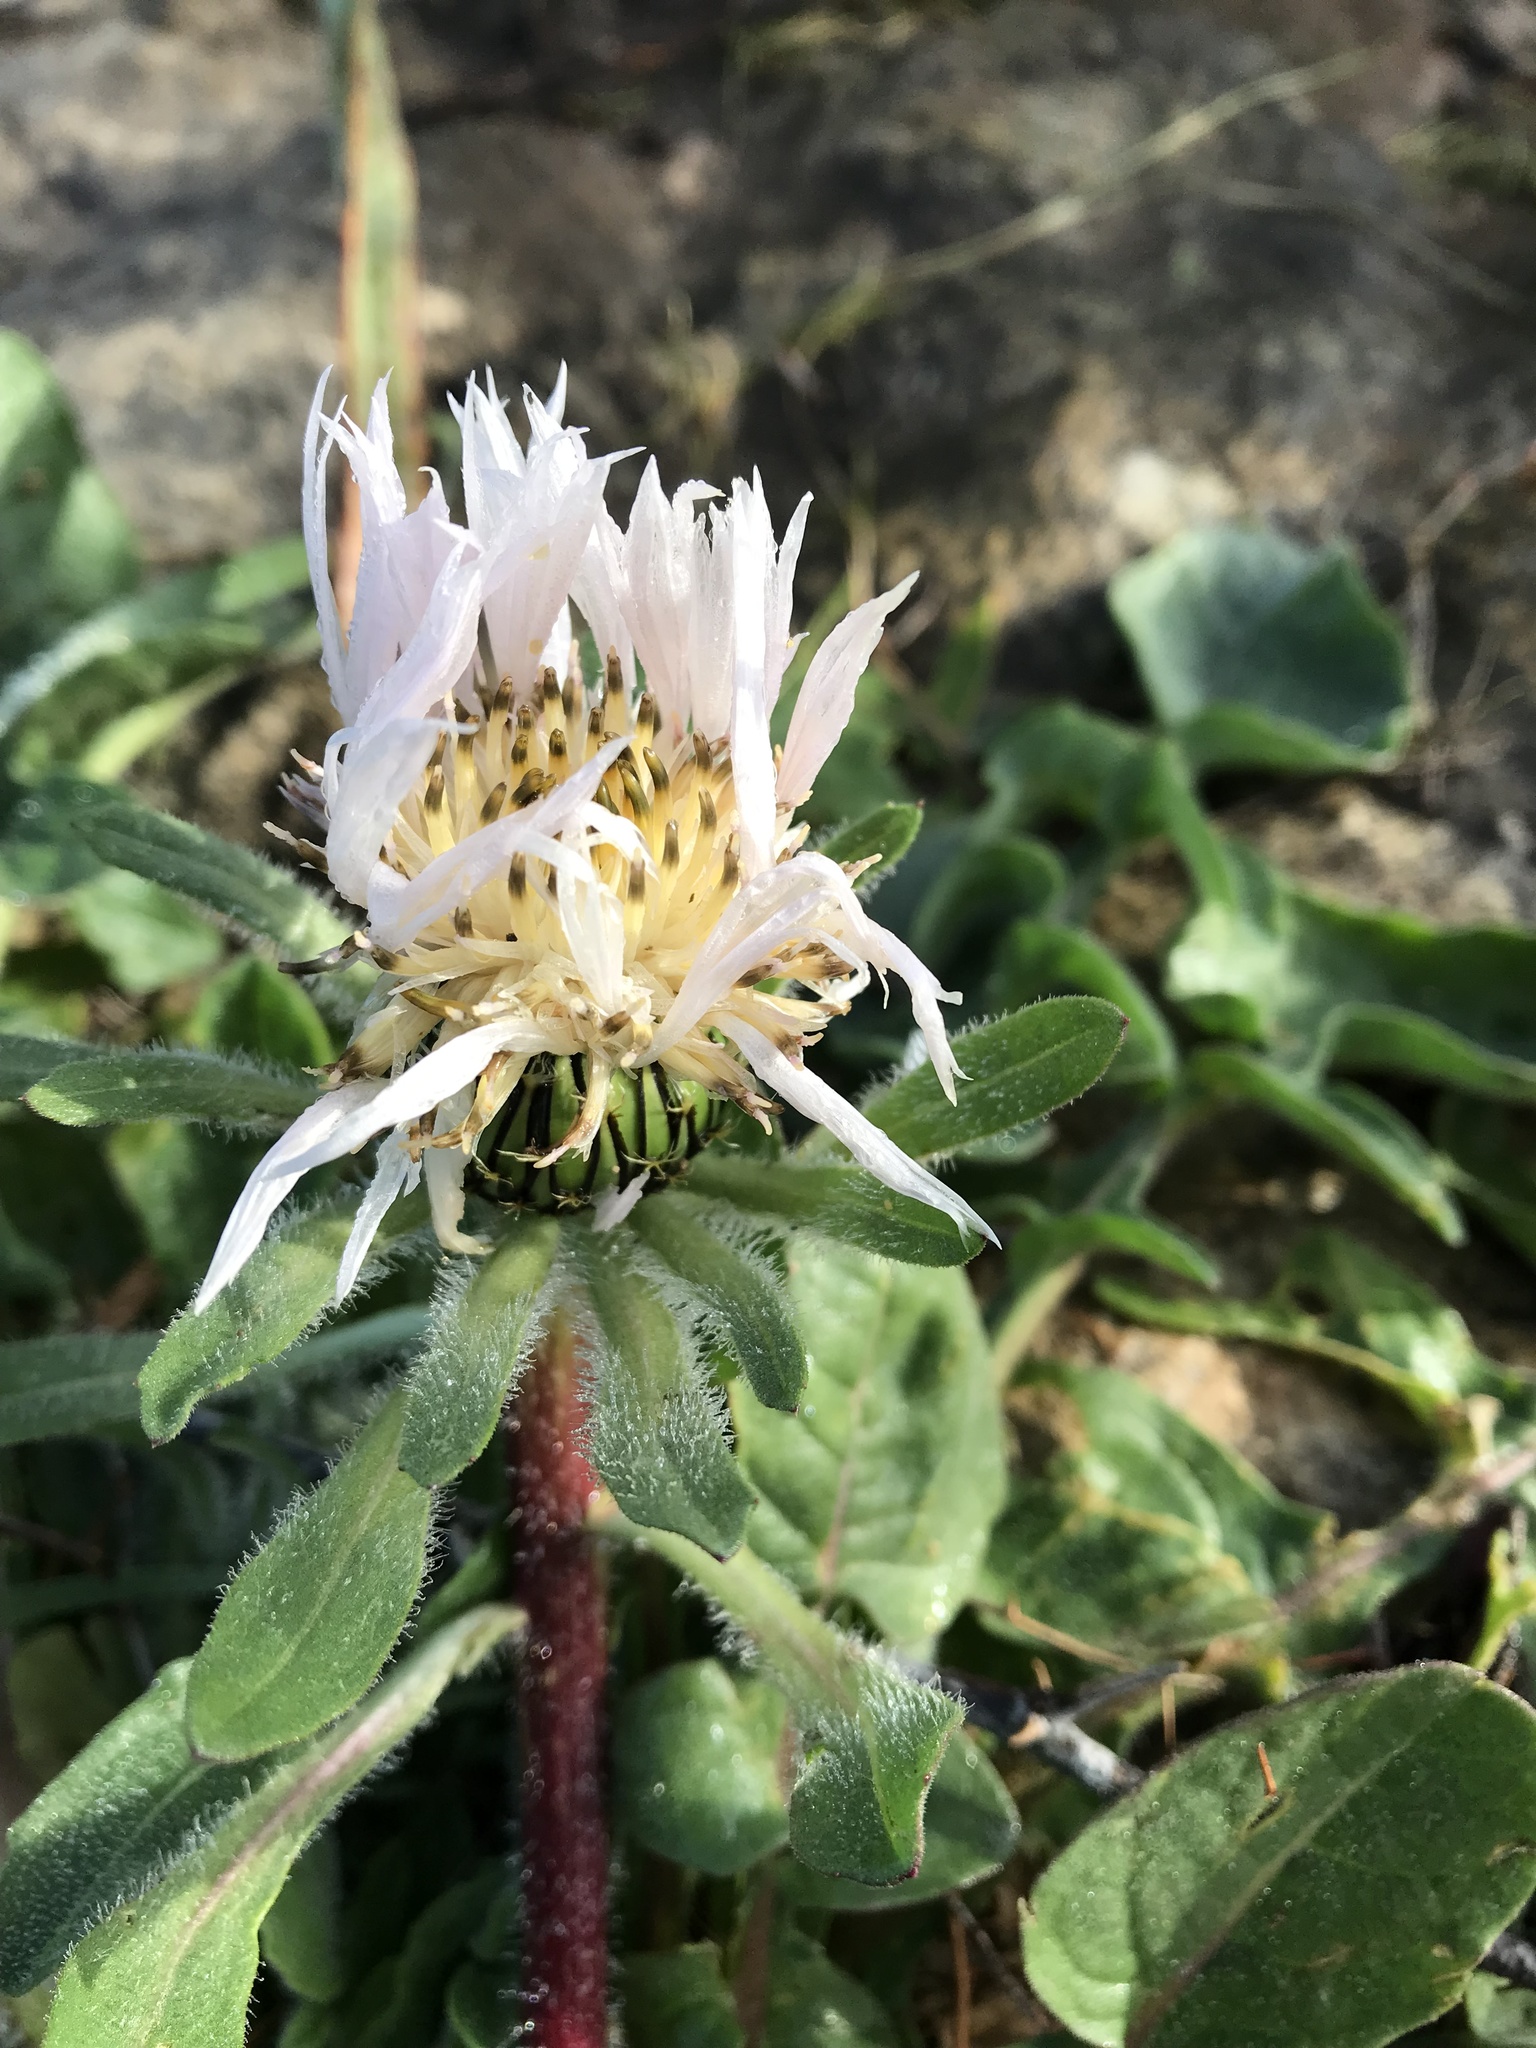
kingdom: Plantae
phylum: Tracheophyta
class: Magnoliopsida
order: Asterales
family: Asteraceae
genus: Centaurea
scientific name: Centaurea pullata
